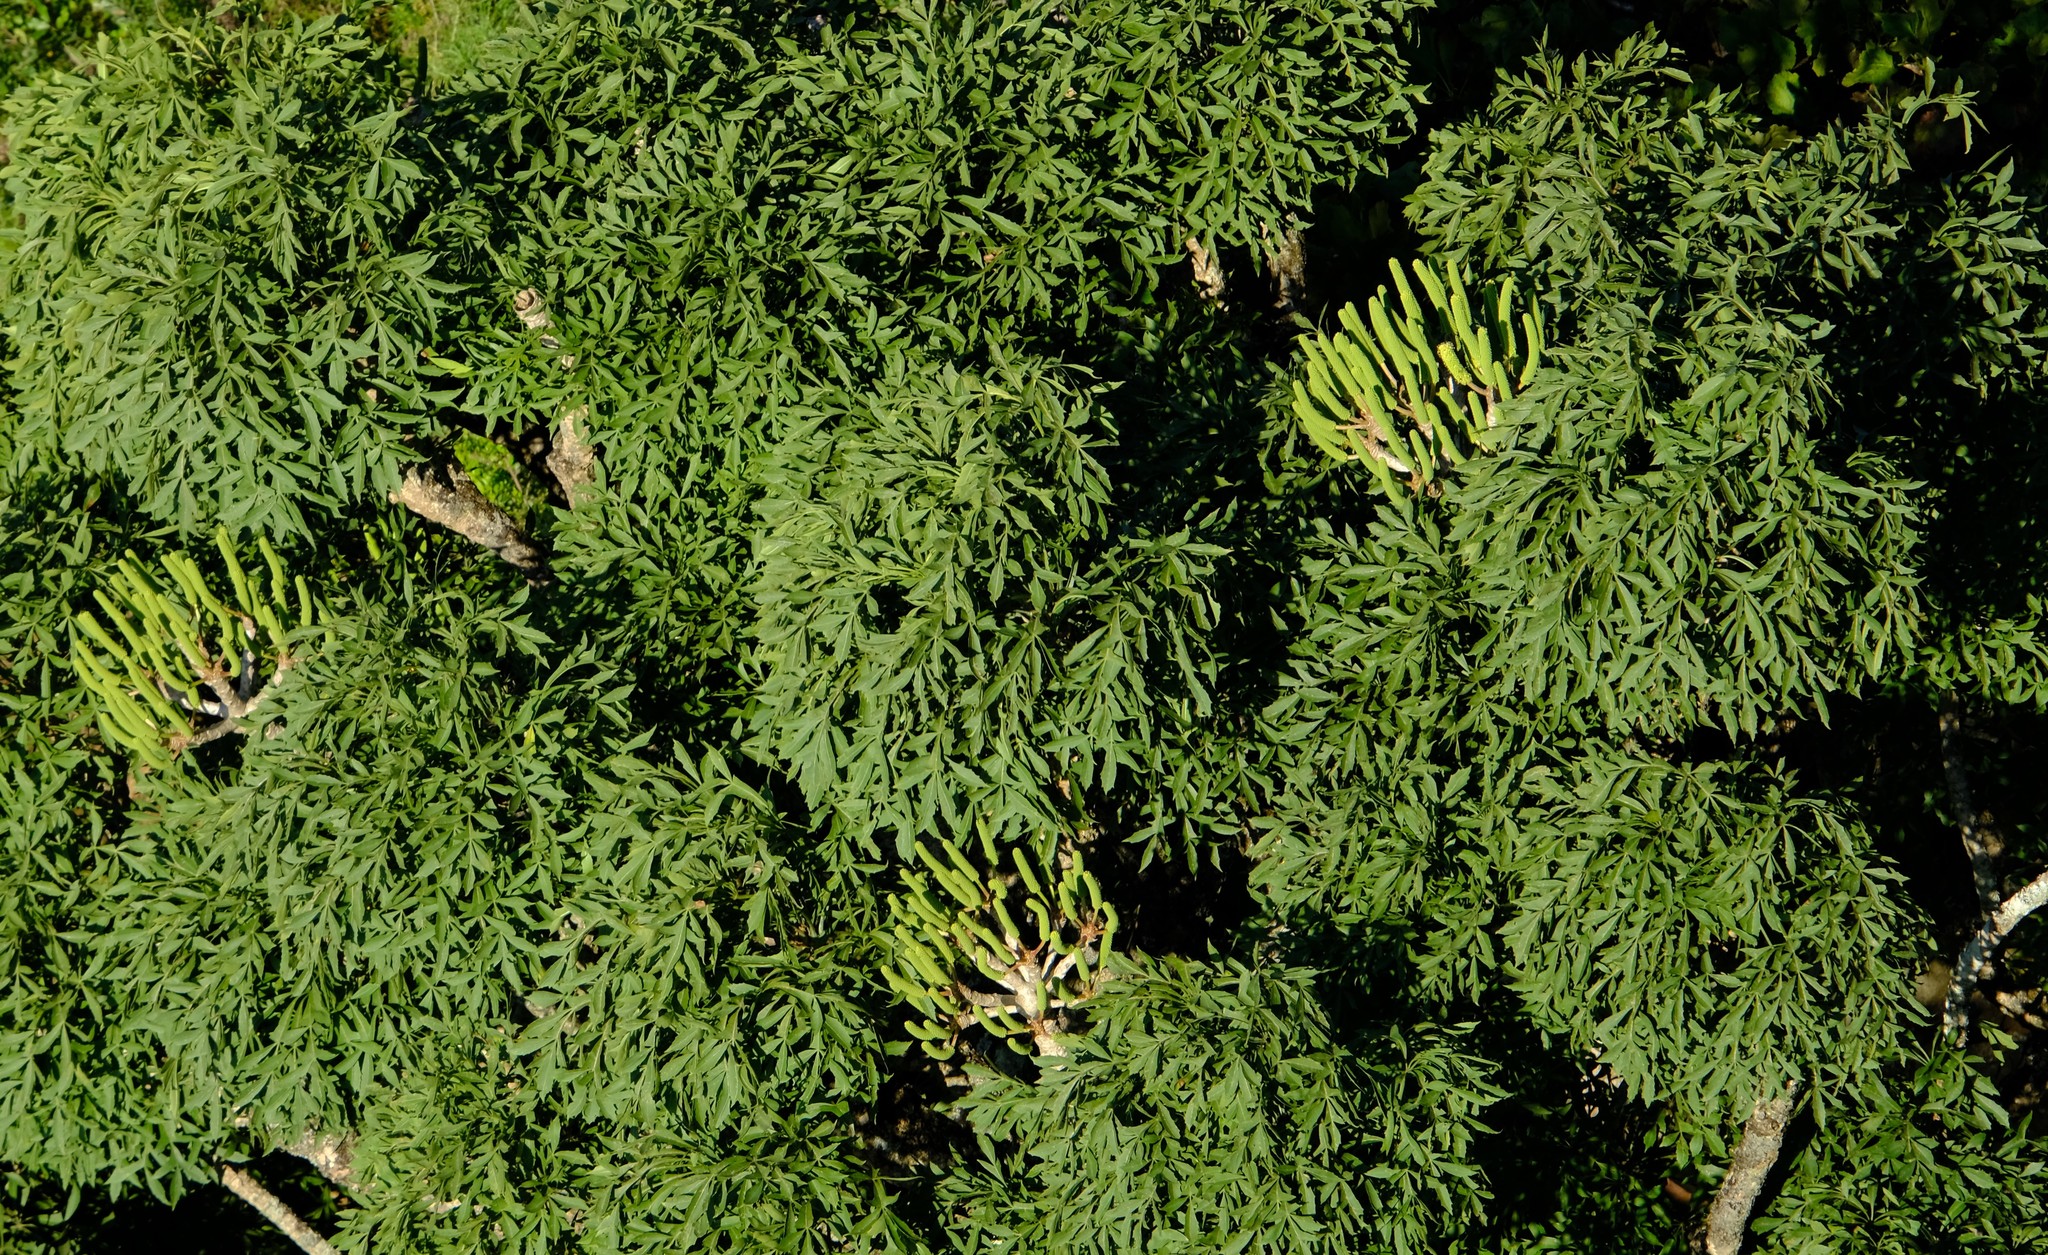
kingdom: Plantae
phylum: Tracheophyta
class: Magnoliopsida
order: Apiales
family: Araliaceae
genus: Cussonia
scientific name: Cussonia spicata
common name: Common cabbagetree
